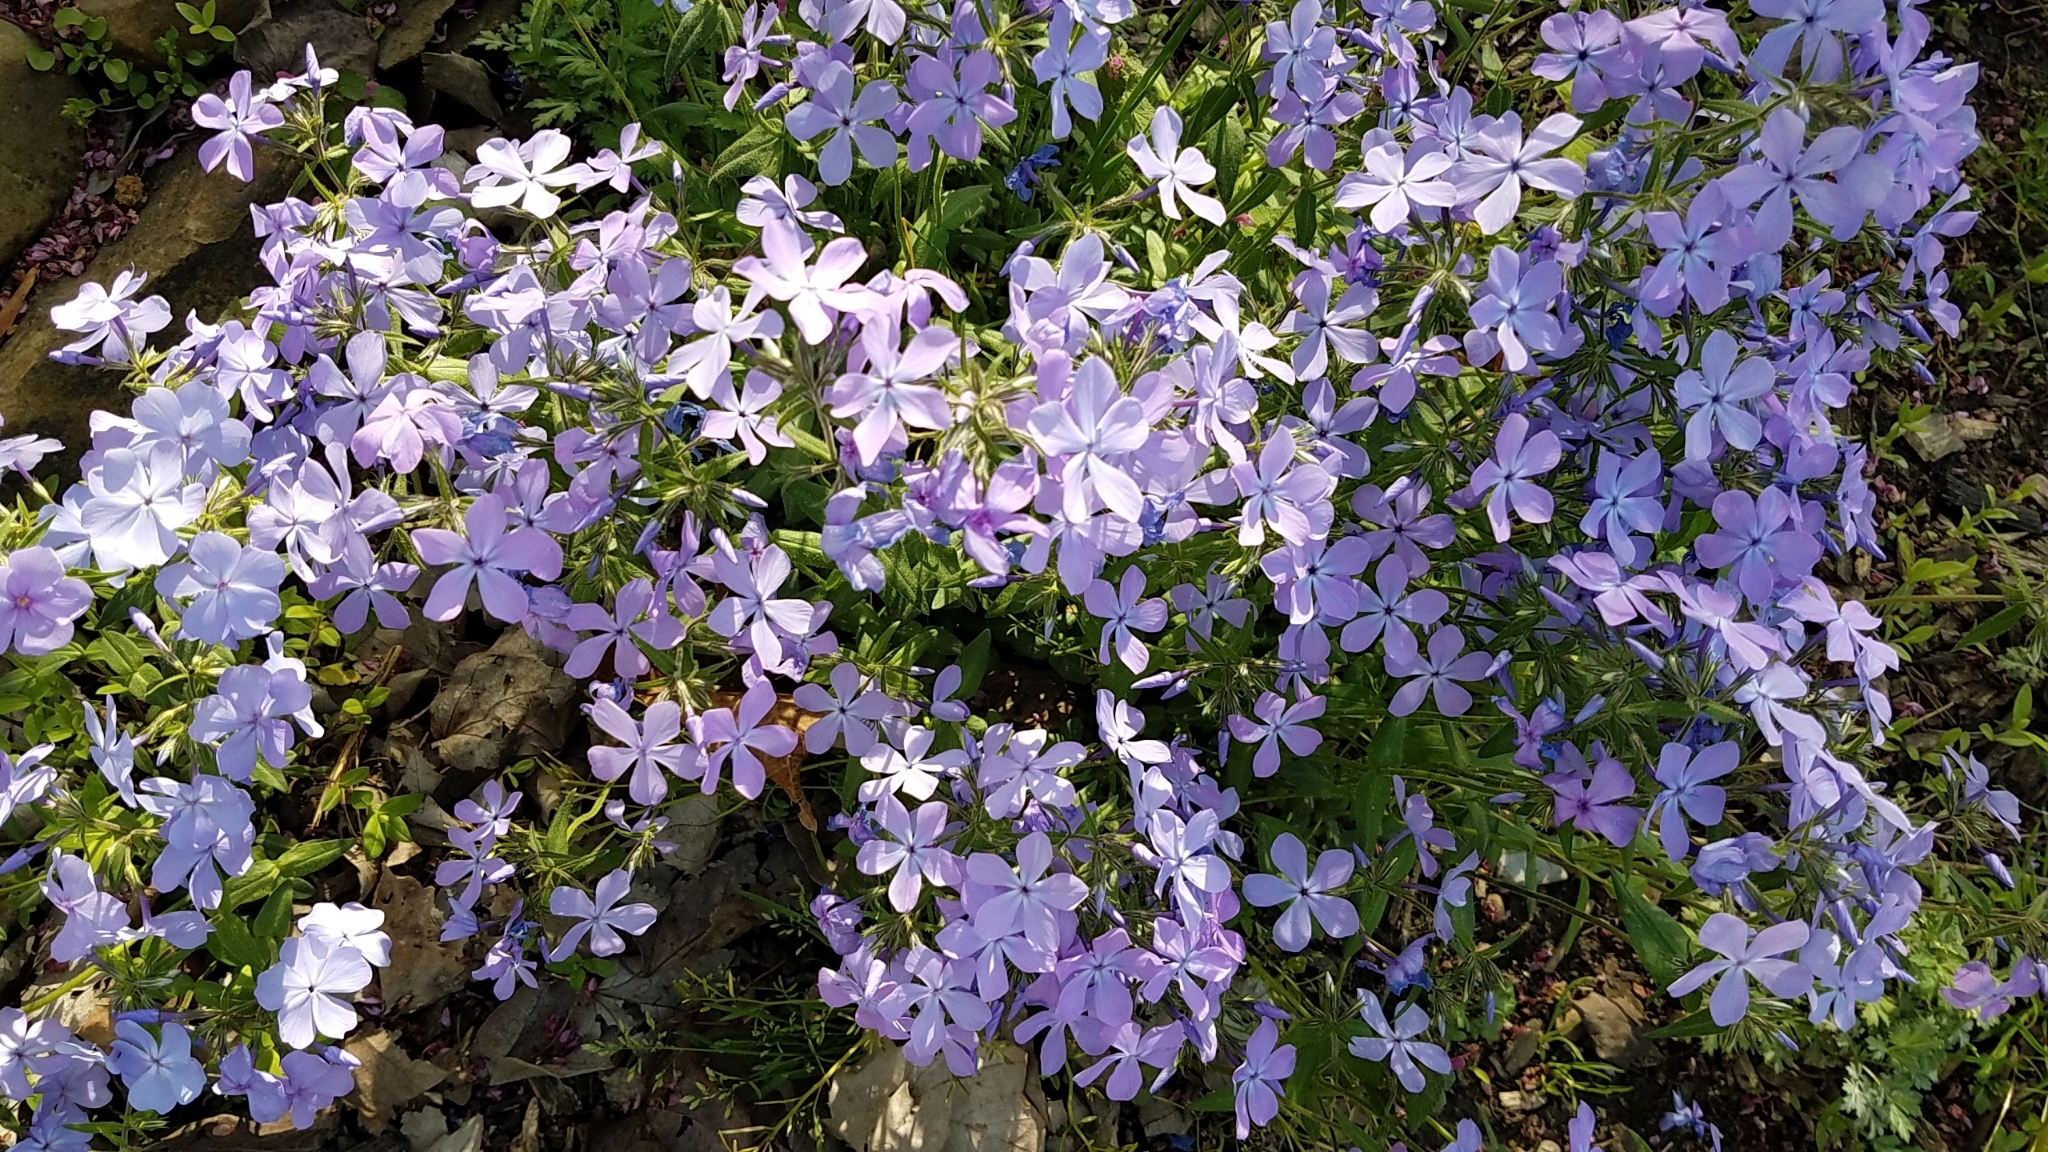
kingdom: Plantae
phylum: Tracheophyta
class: Magnoliopsida
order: Ericales
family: Polemoniaceae
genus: Phlox
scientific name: Phlox divaricata
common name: Blue phlox
